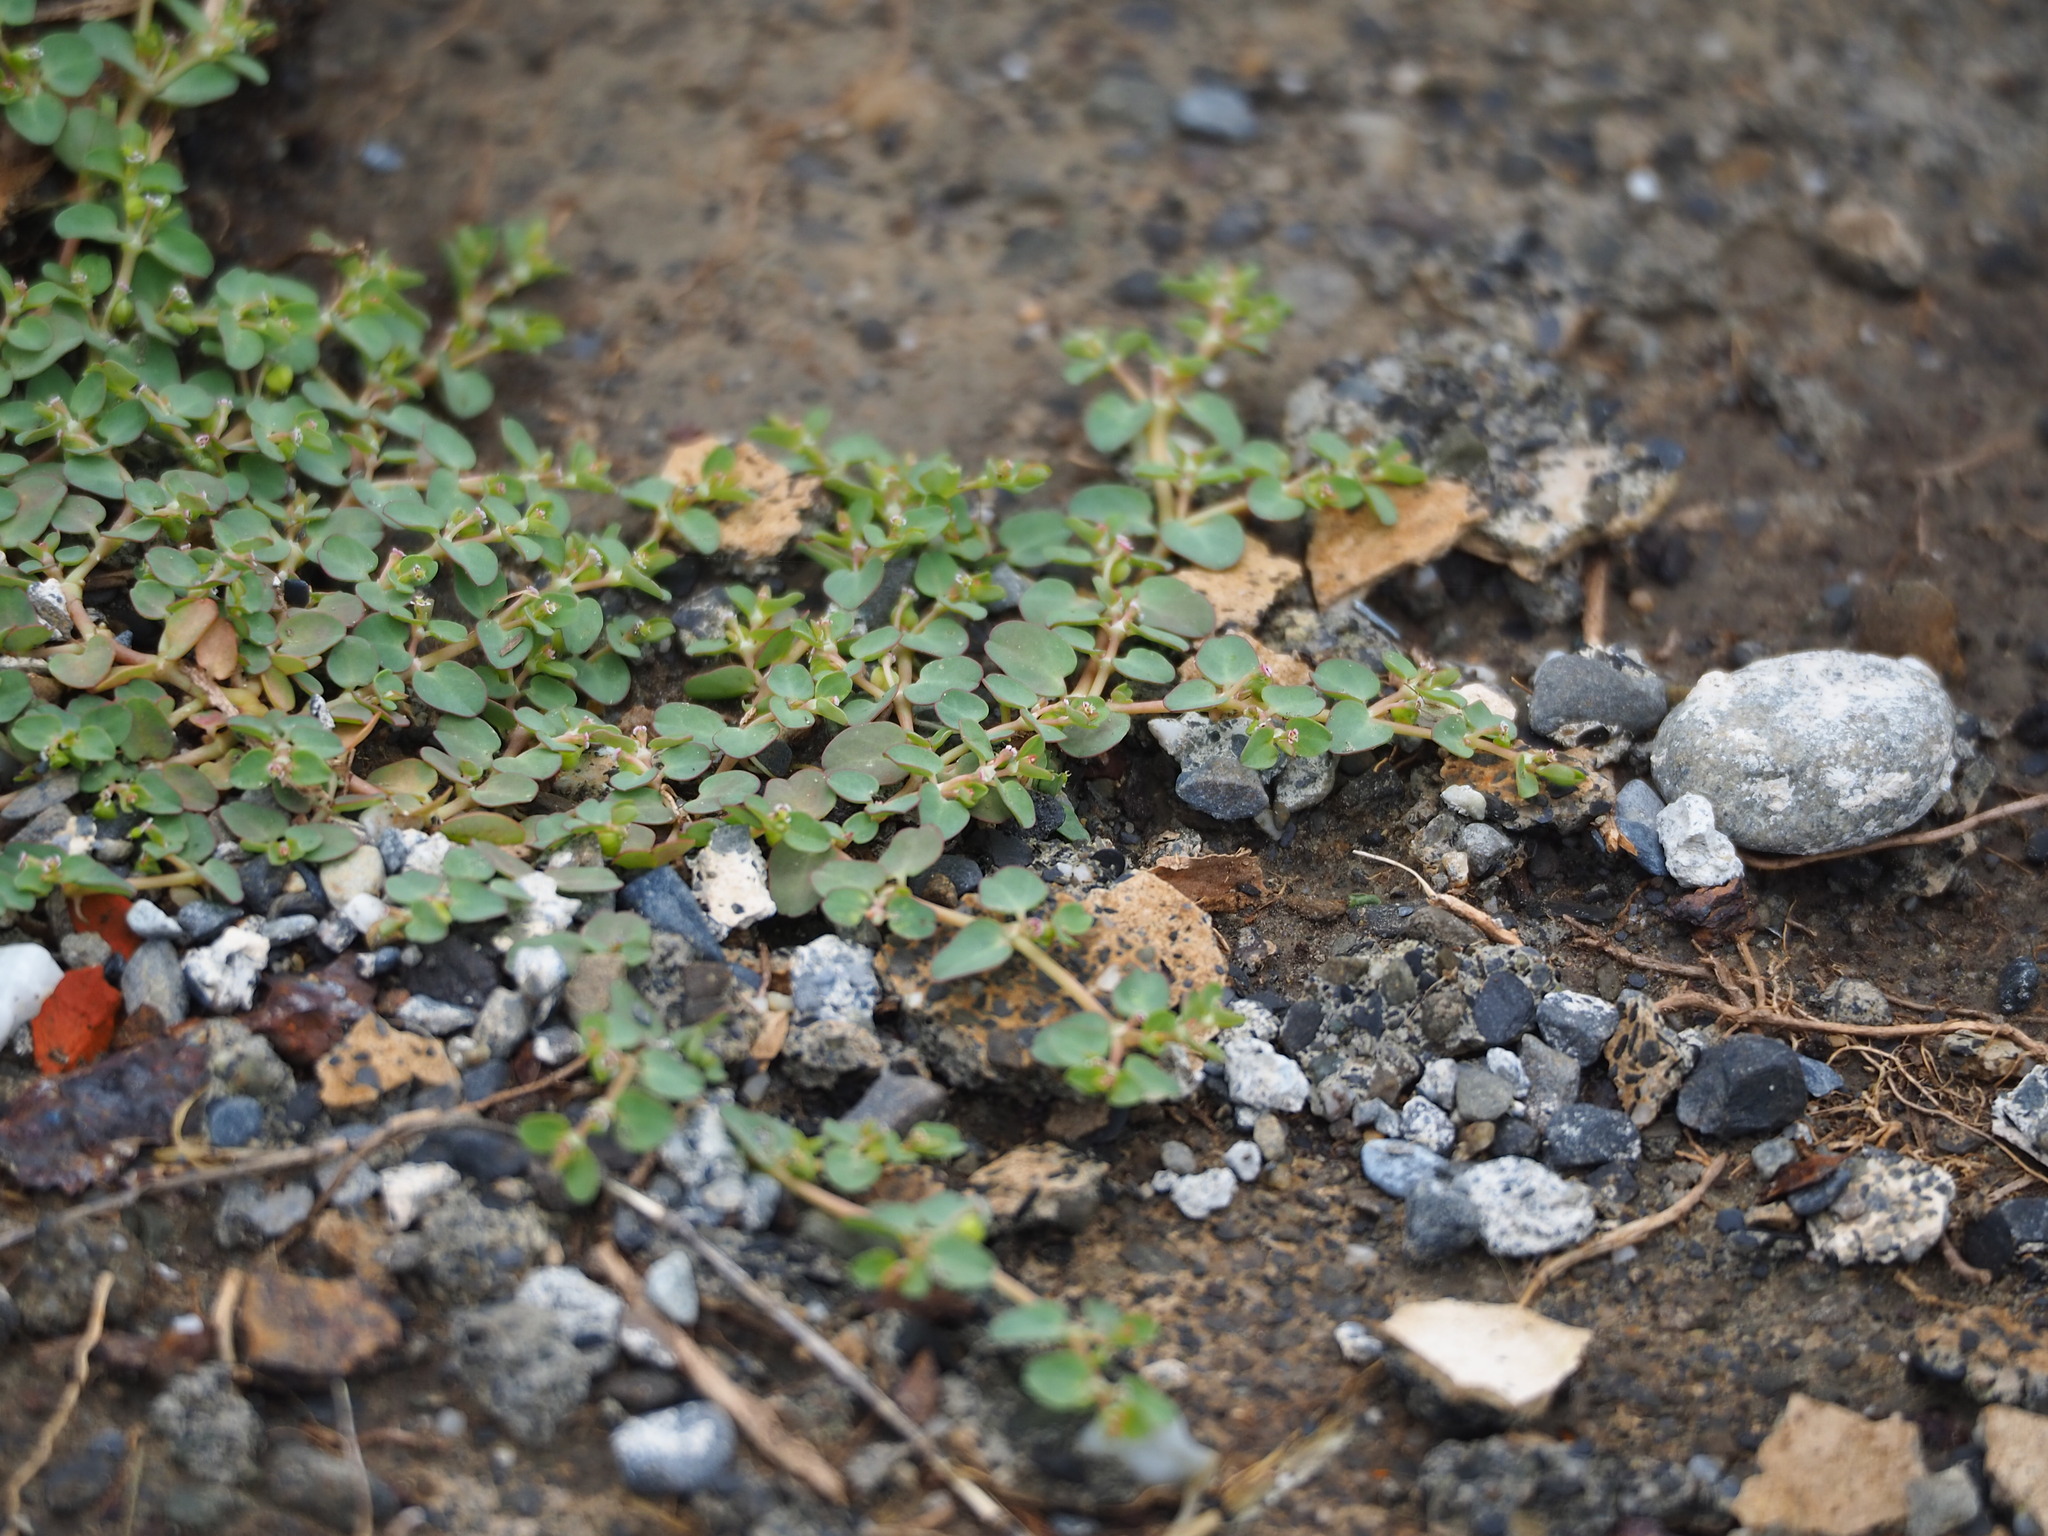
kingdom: Plantae
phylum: Tracheophyta
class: Magnoliopsida
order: Malpighiales
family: Euphorbiaceae
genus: Euphorbia
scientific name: Euphorbia serpens
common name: Matted sandmat
